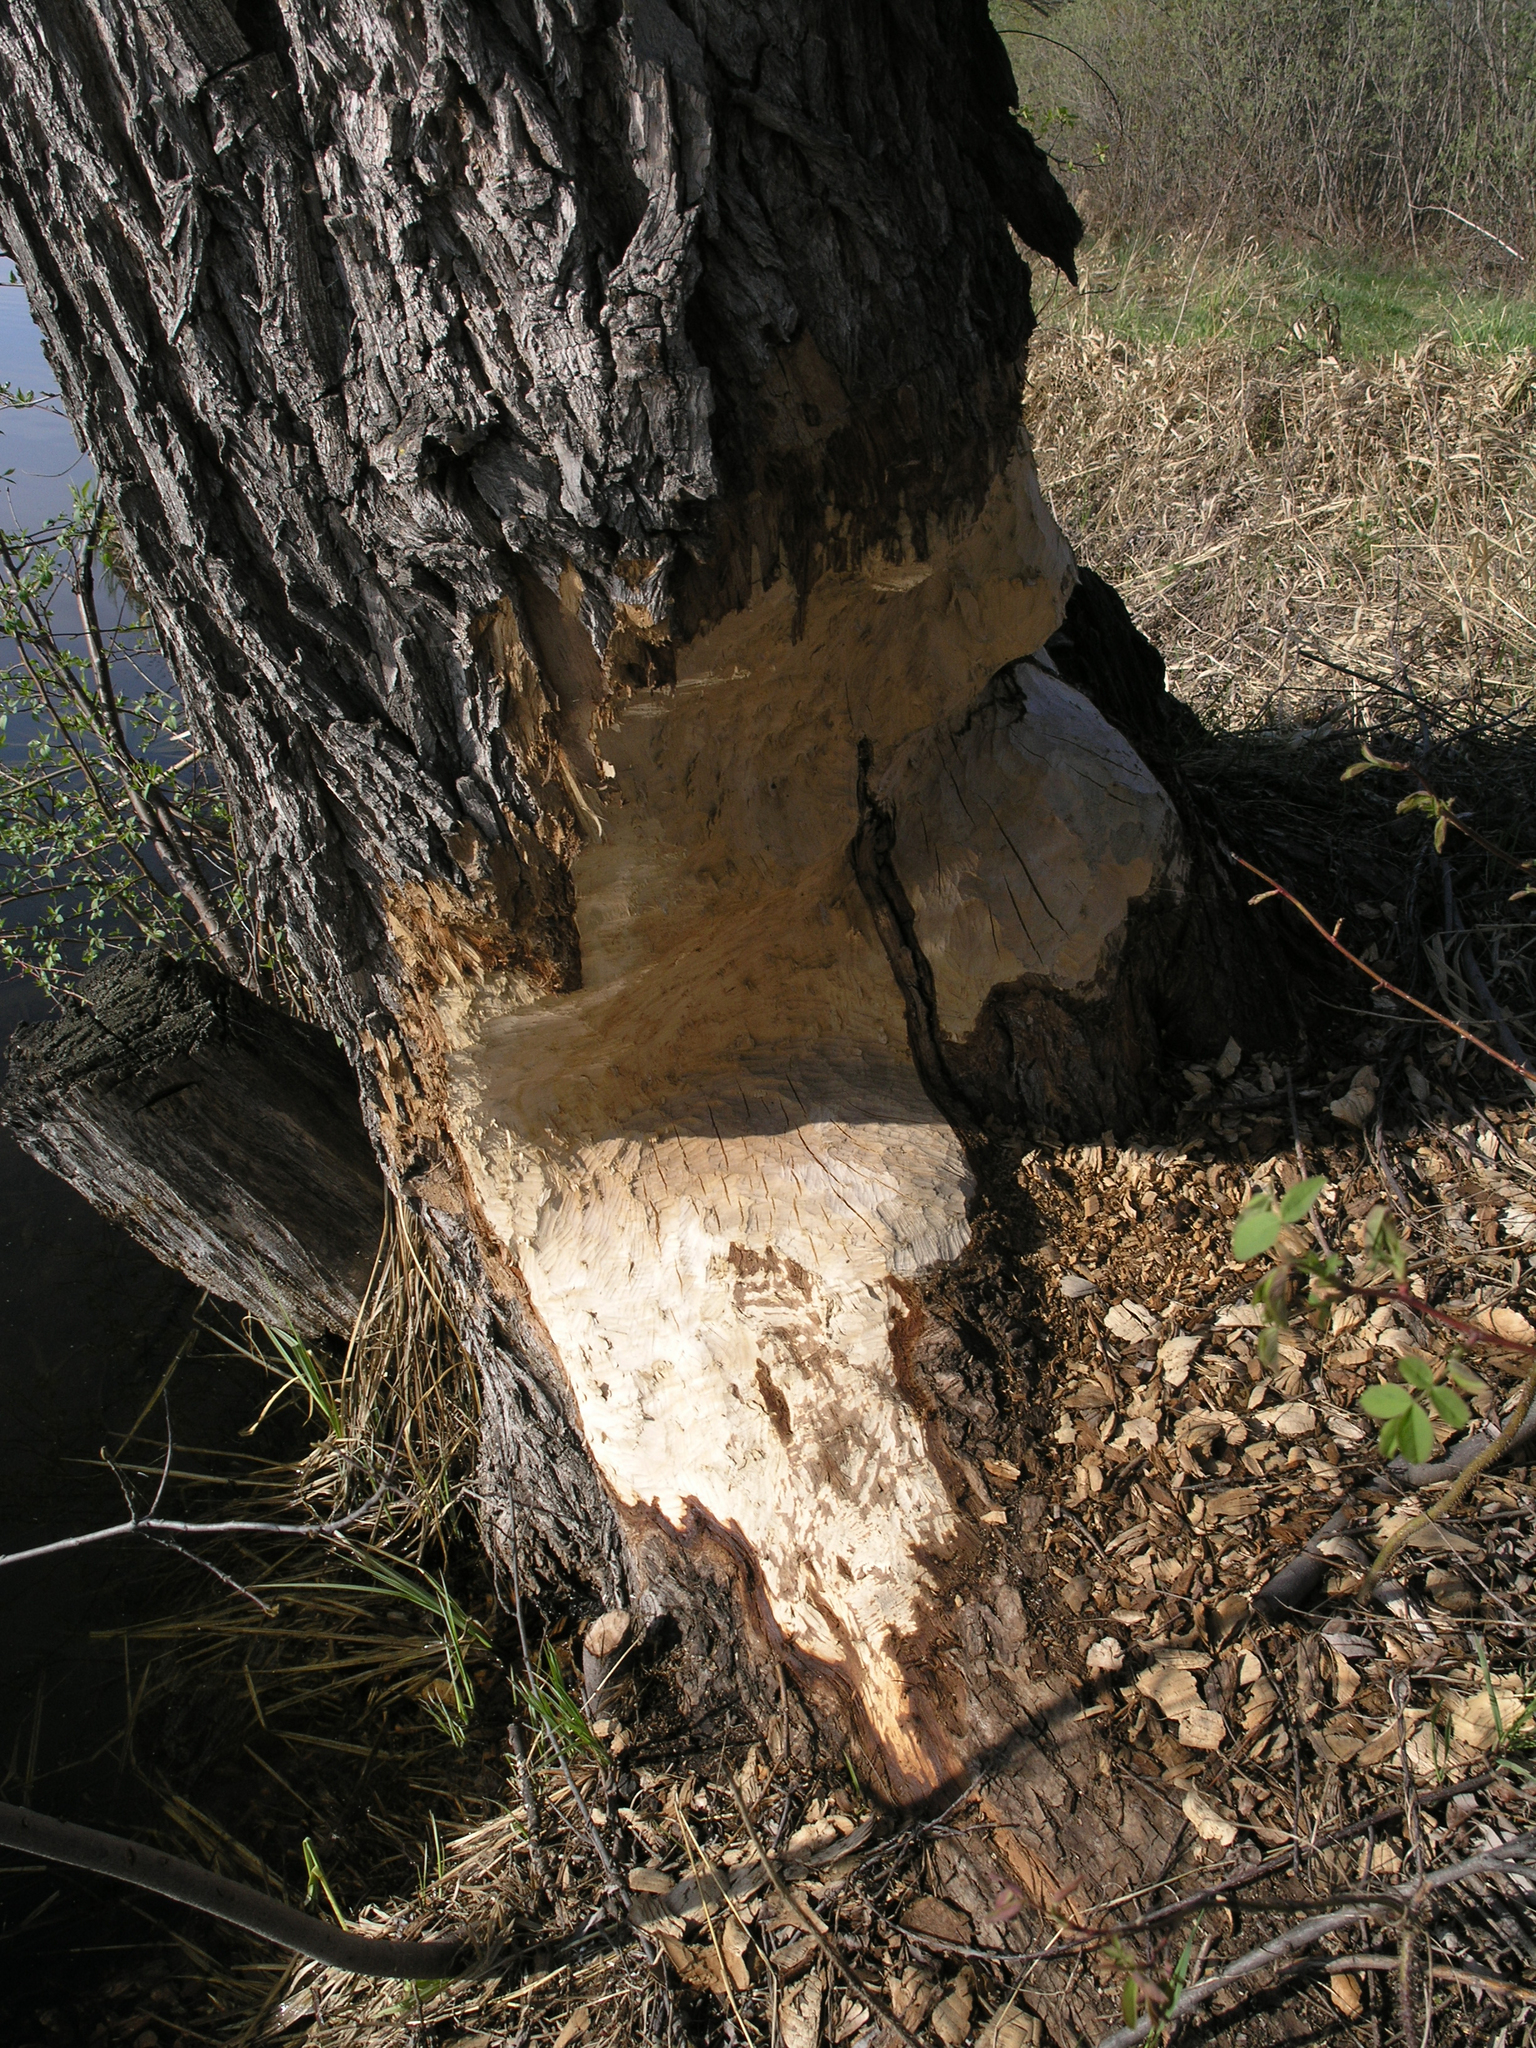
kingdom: Animalia
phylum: Chordata
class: Mammalia
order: Rodentia
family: Castoridae
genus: Castor
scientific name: Castor fiber
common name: Eurasian beaver
